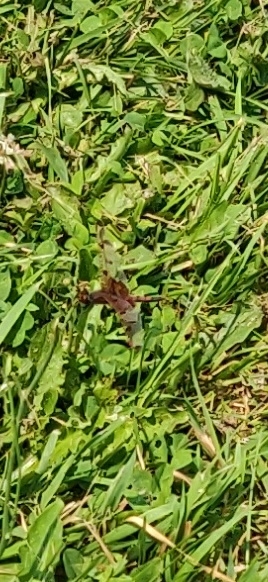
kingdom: Animalia
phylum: Arthropoda
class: Insecta
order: Odonata
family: Libellulidae
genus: Celithemis
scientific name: Celithemis elisa
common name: Calico pennant
